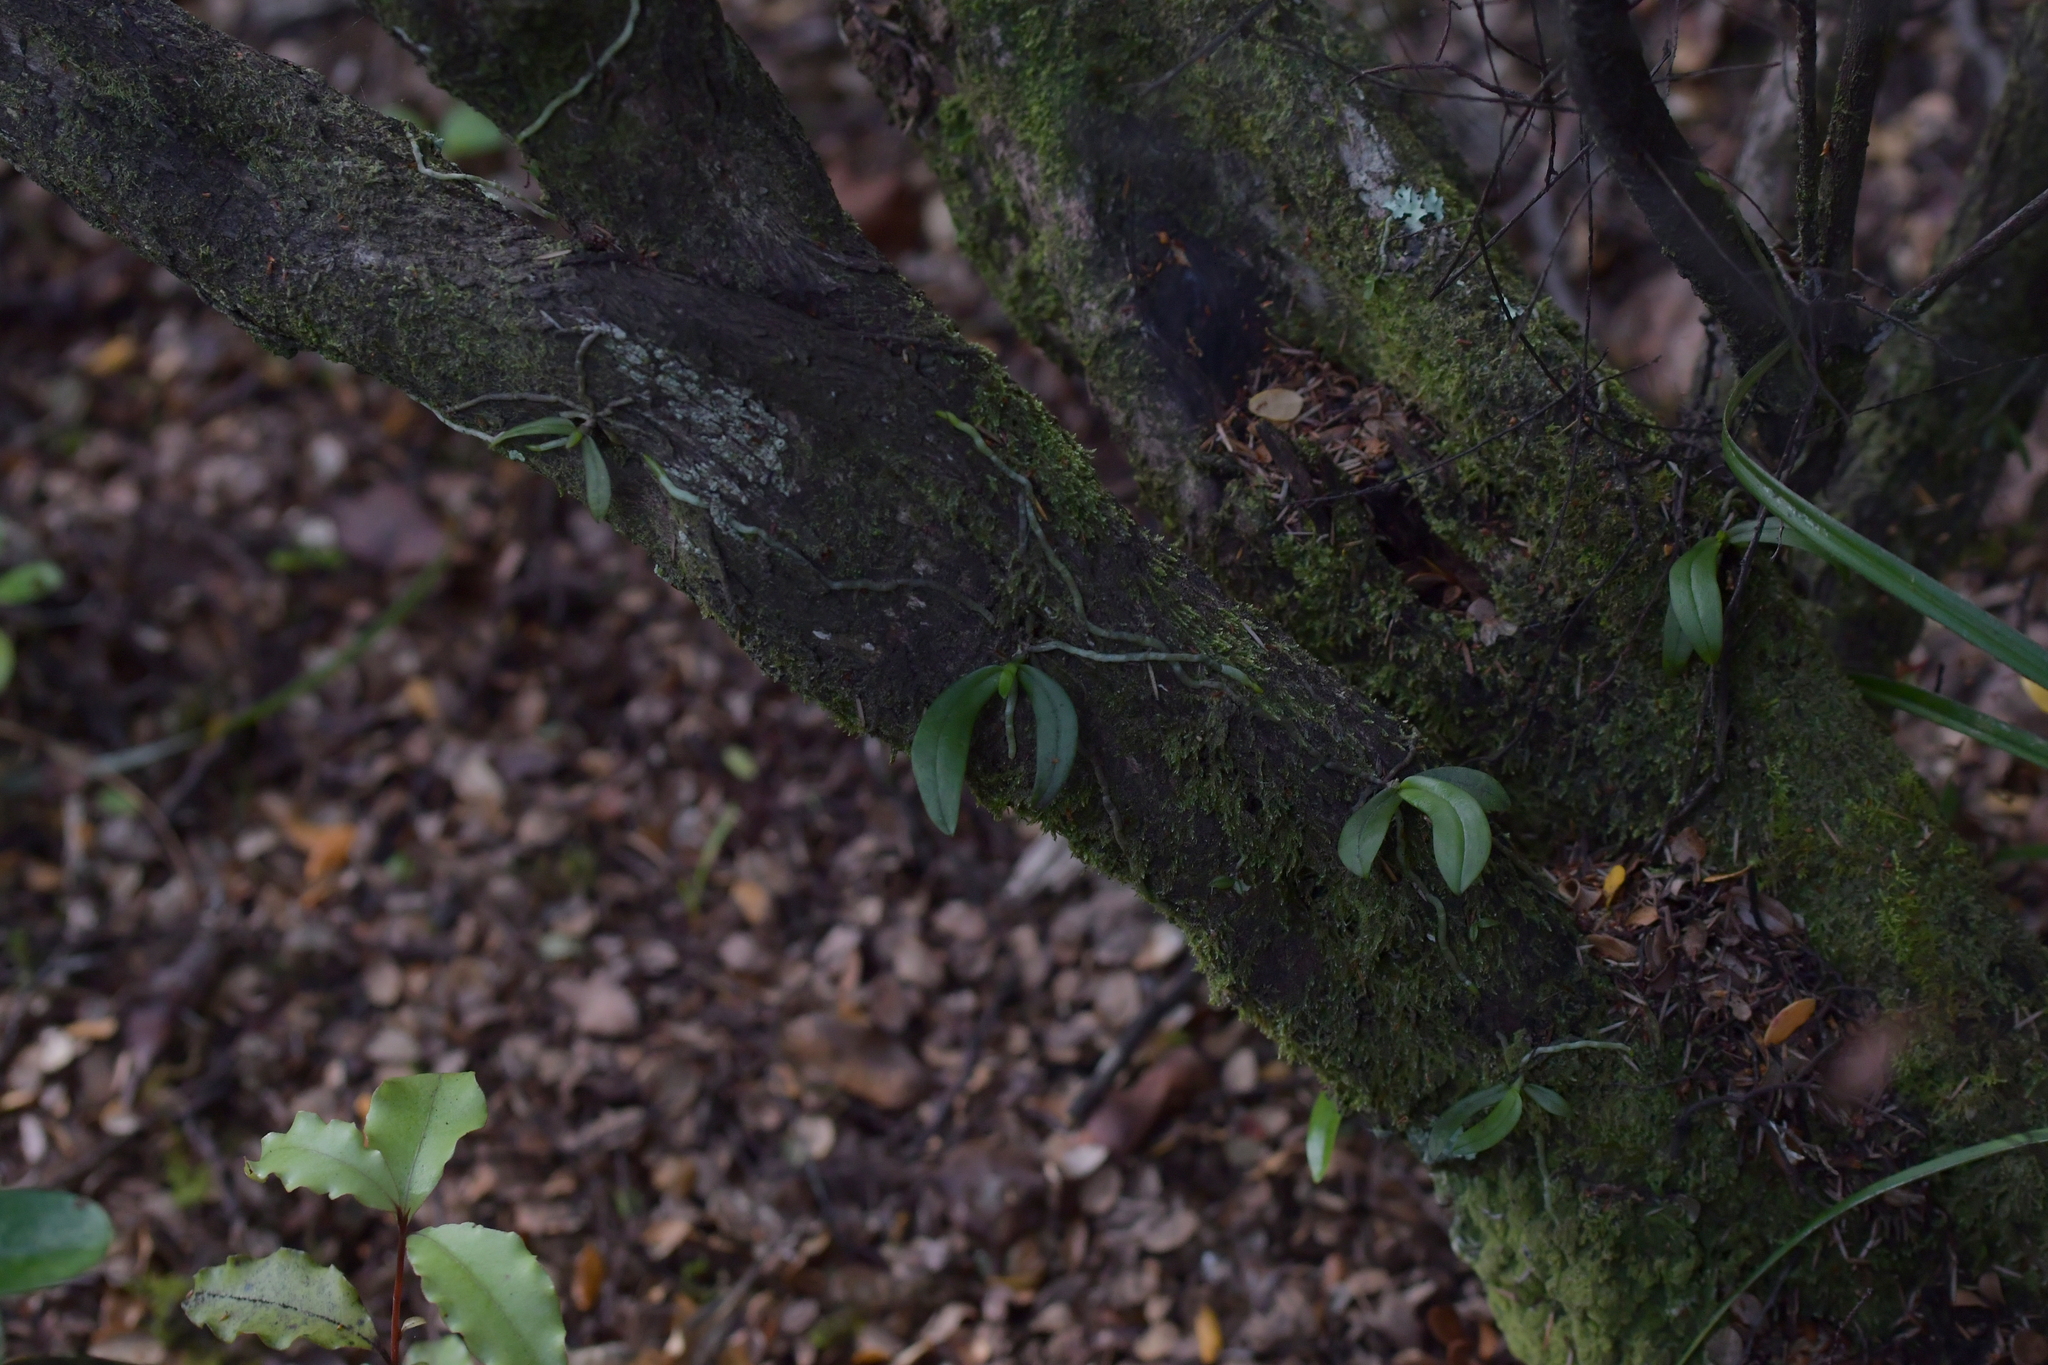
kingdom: Plantae
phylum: Tracheophyta
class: Liliopsida
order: Asparagales
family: Orchidaceae
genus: Drymoanthus
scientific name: Drymoanthus adversus
